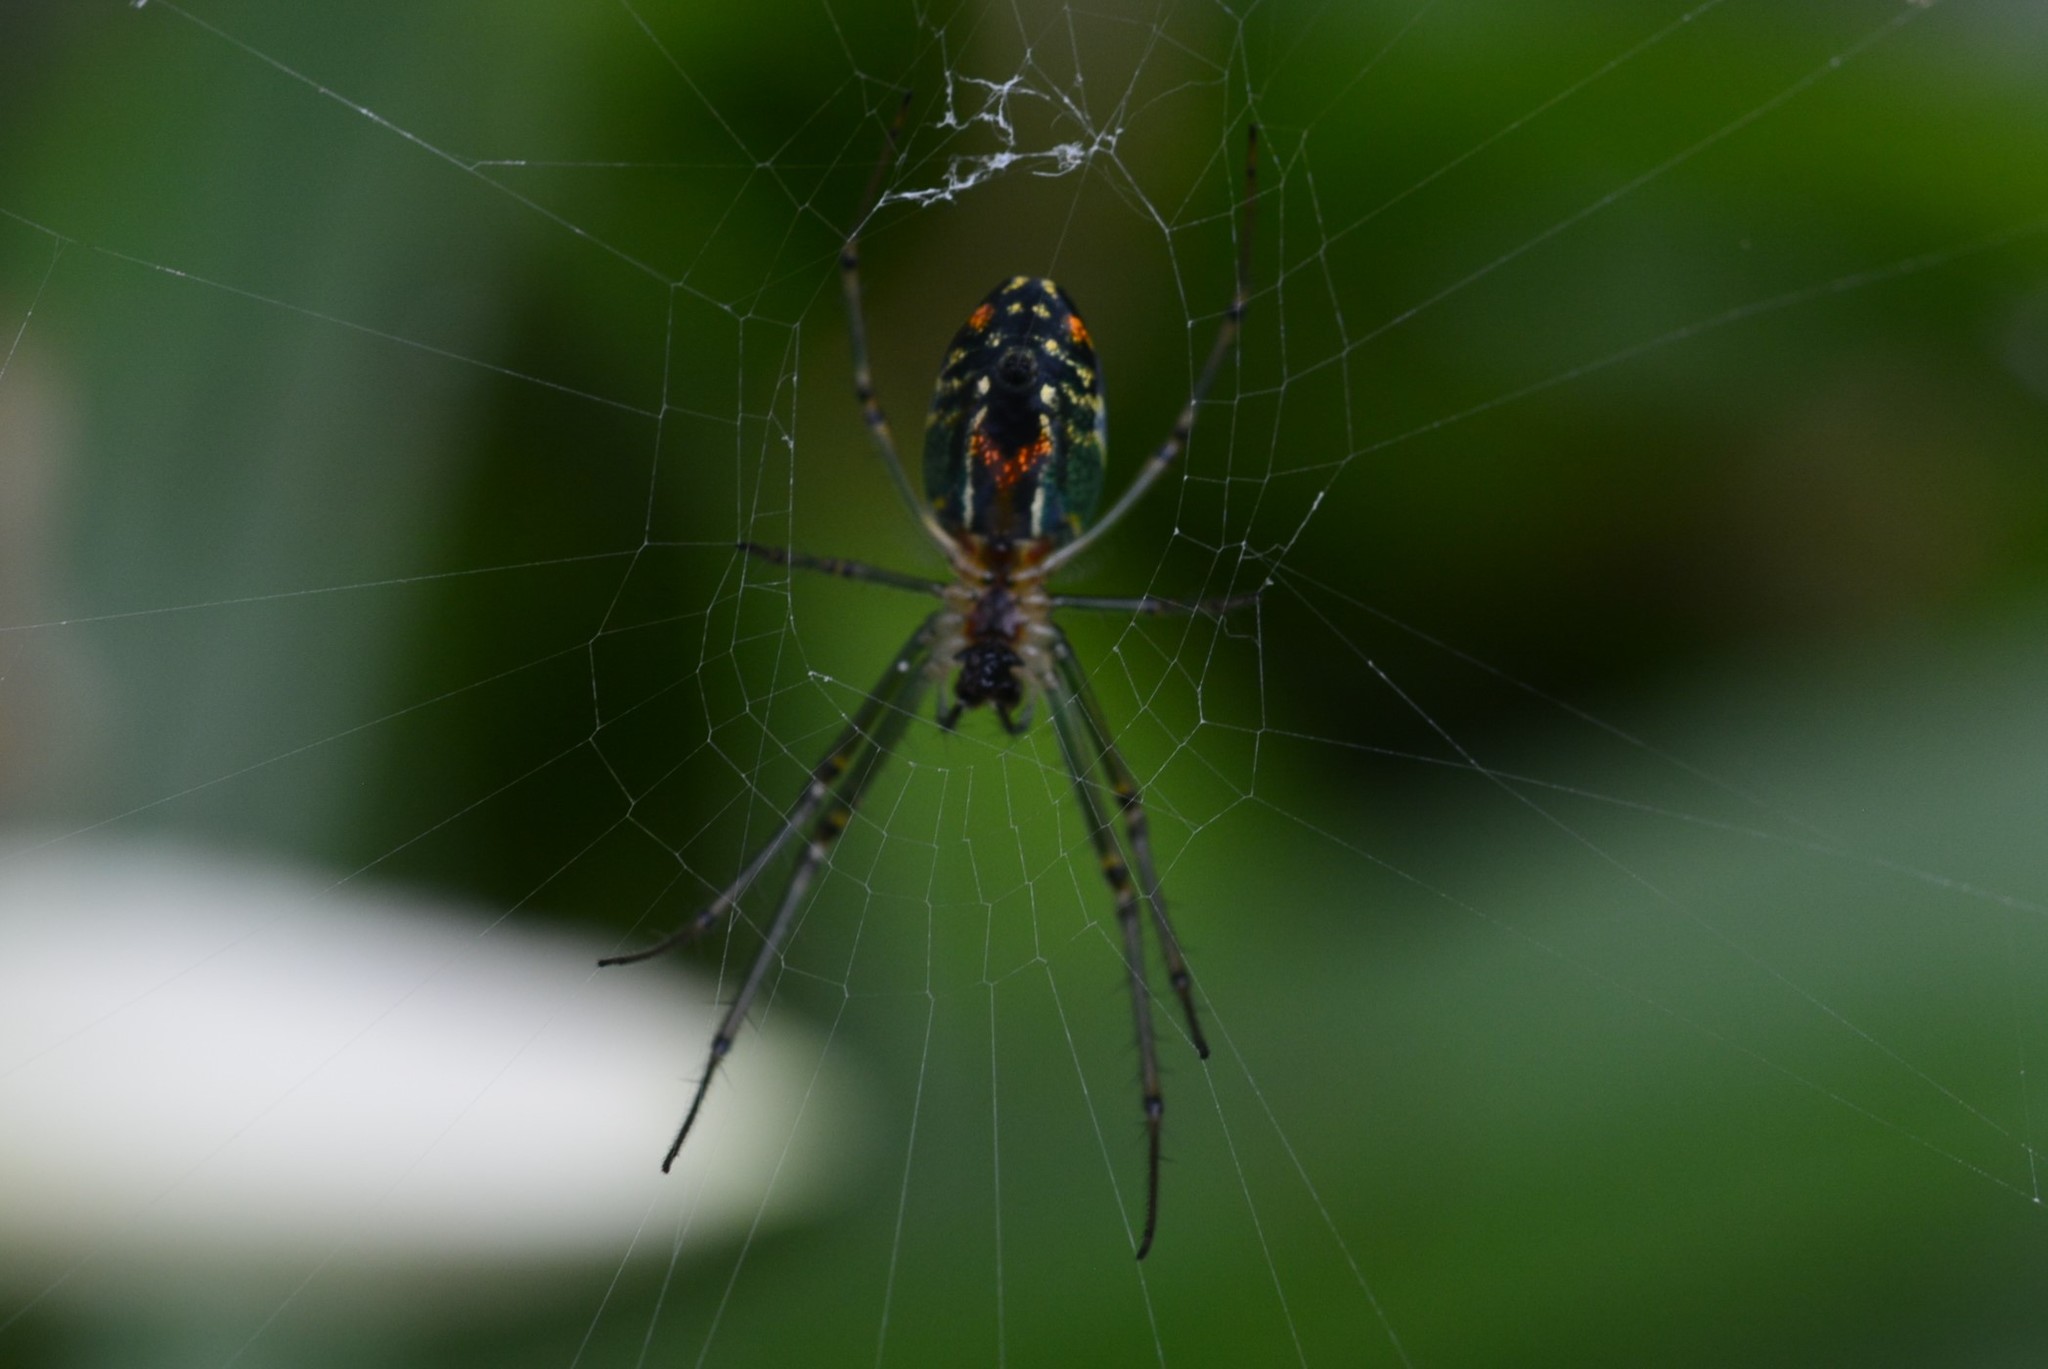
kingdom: Animalia
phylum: Arthropoda
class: Arachnida
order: Araneae
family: Tetragnathidae
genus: Leucauge
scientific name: Leucauge argyrobapta
